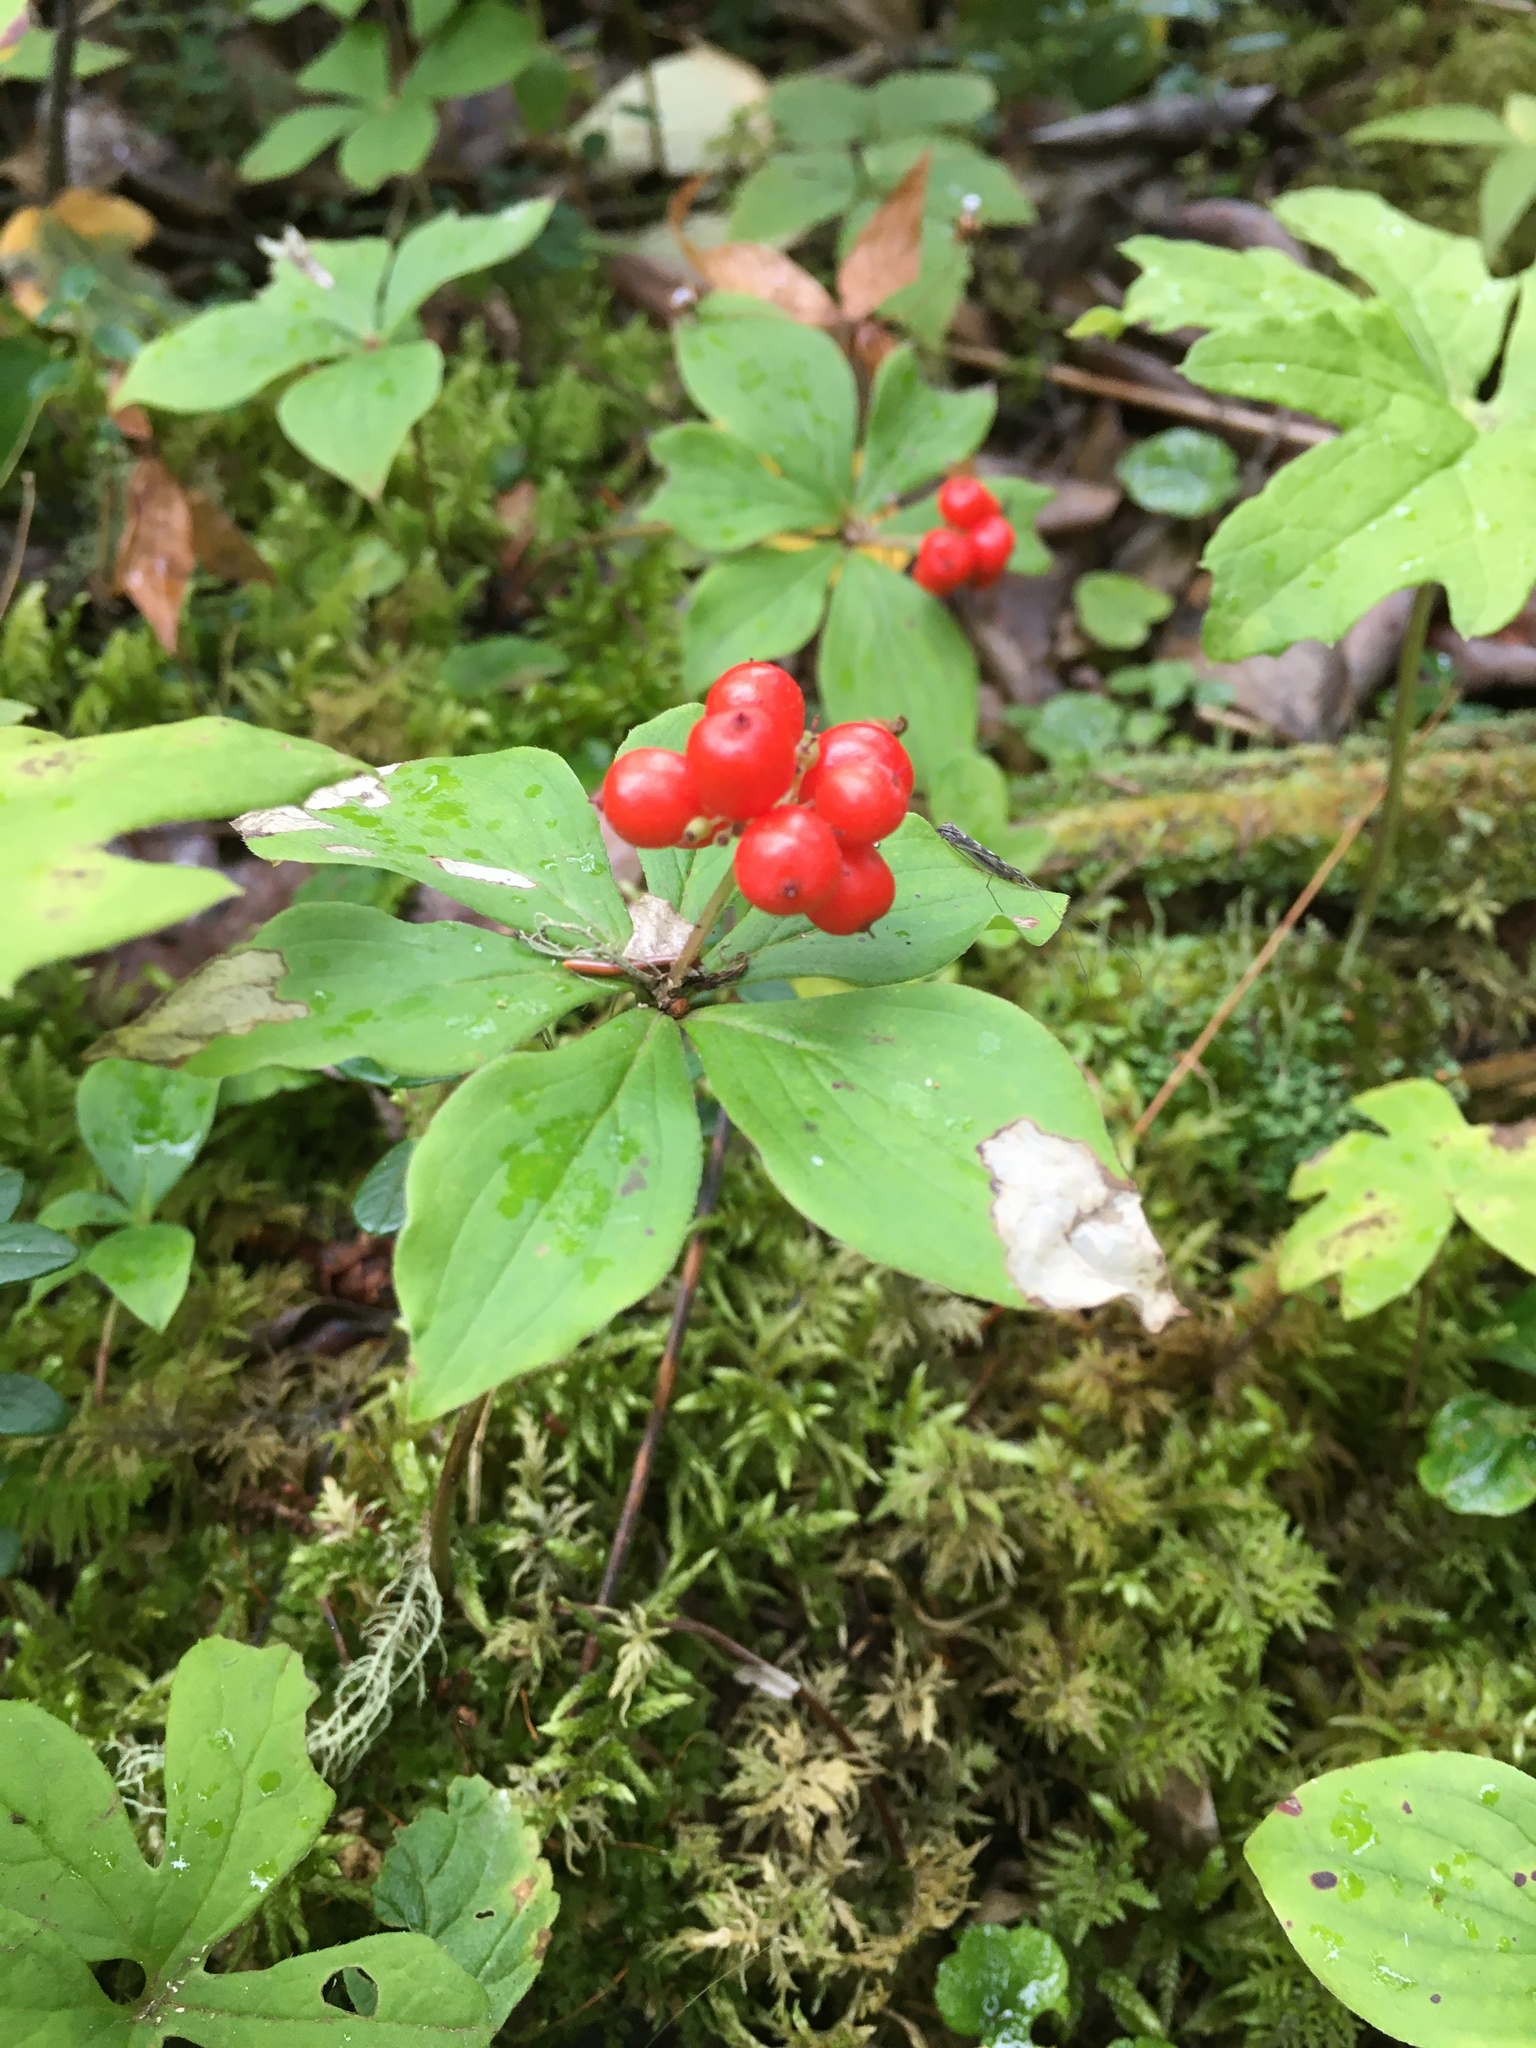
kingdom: Plantae
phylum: Tracheophyta
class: Magnoliopsida
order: Cornales
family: Cornaceae
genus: Cornus
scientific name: Cornus canadensis
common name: Creeping dogwood
